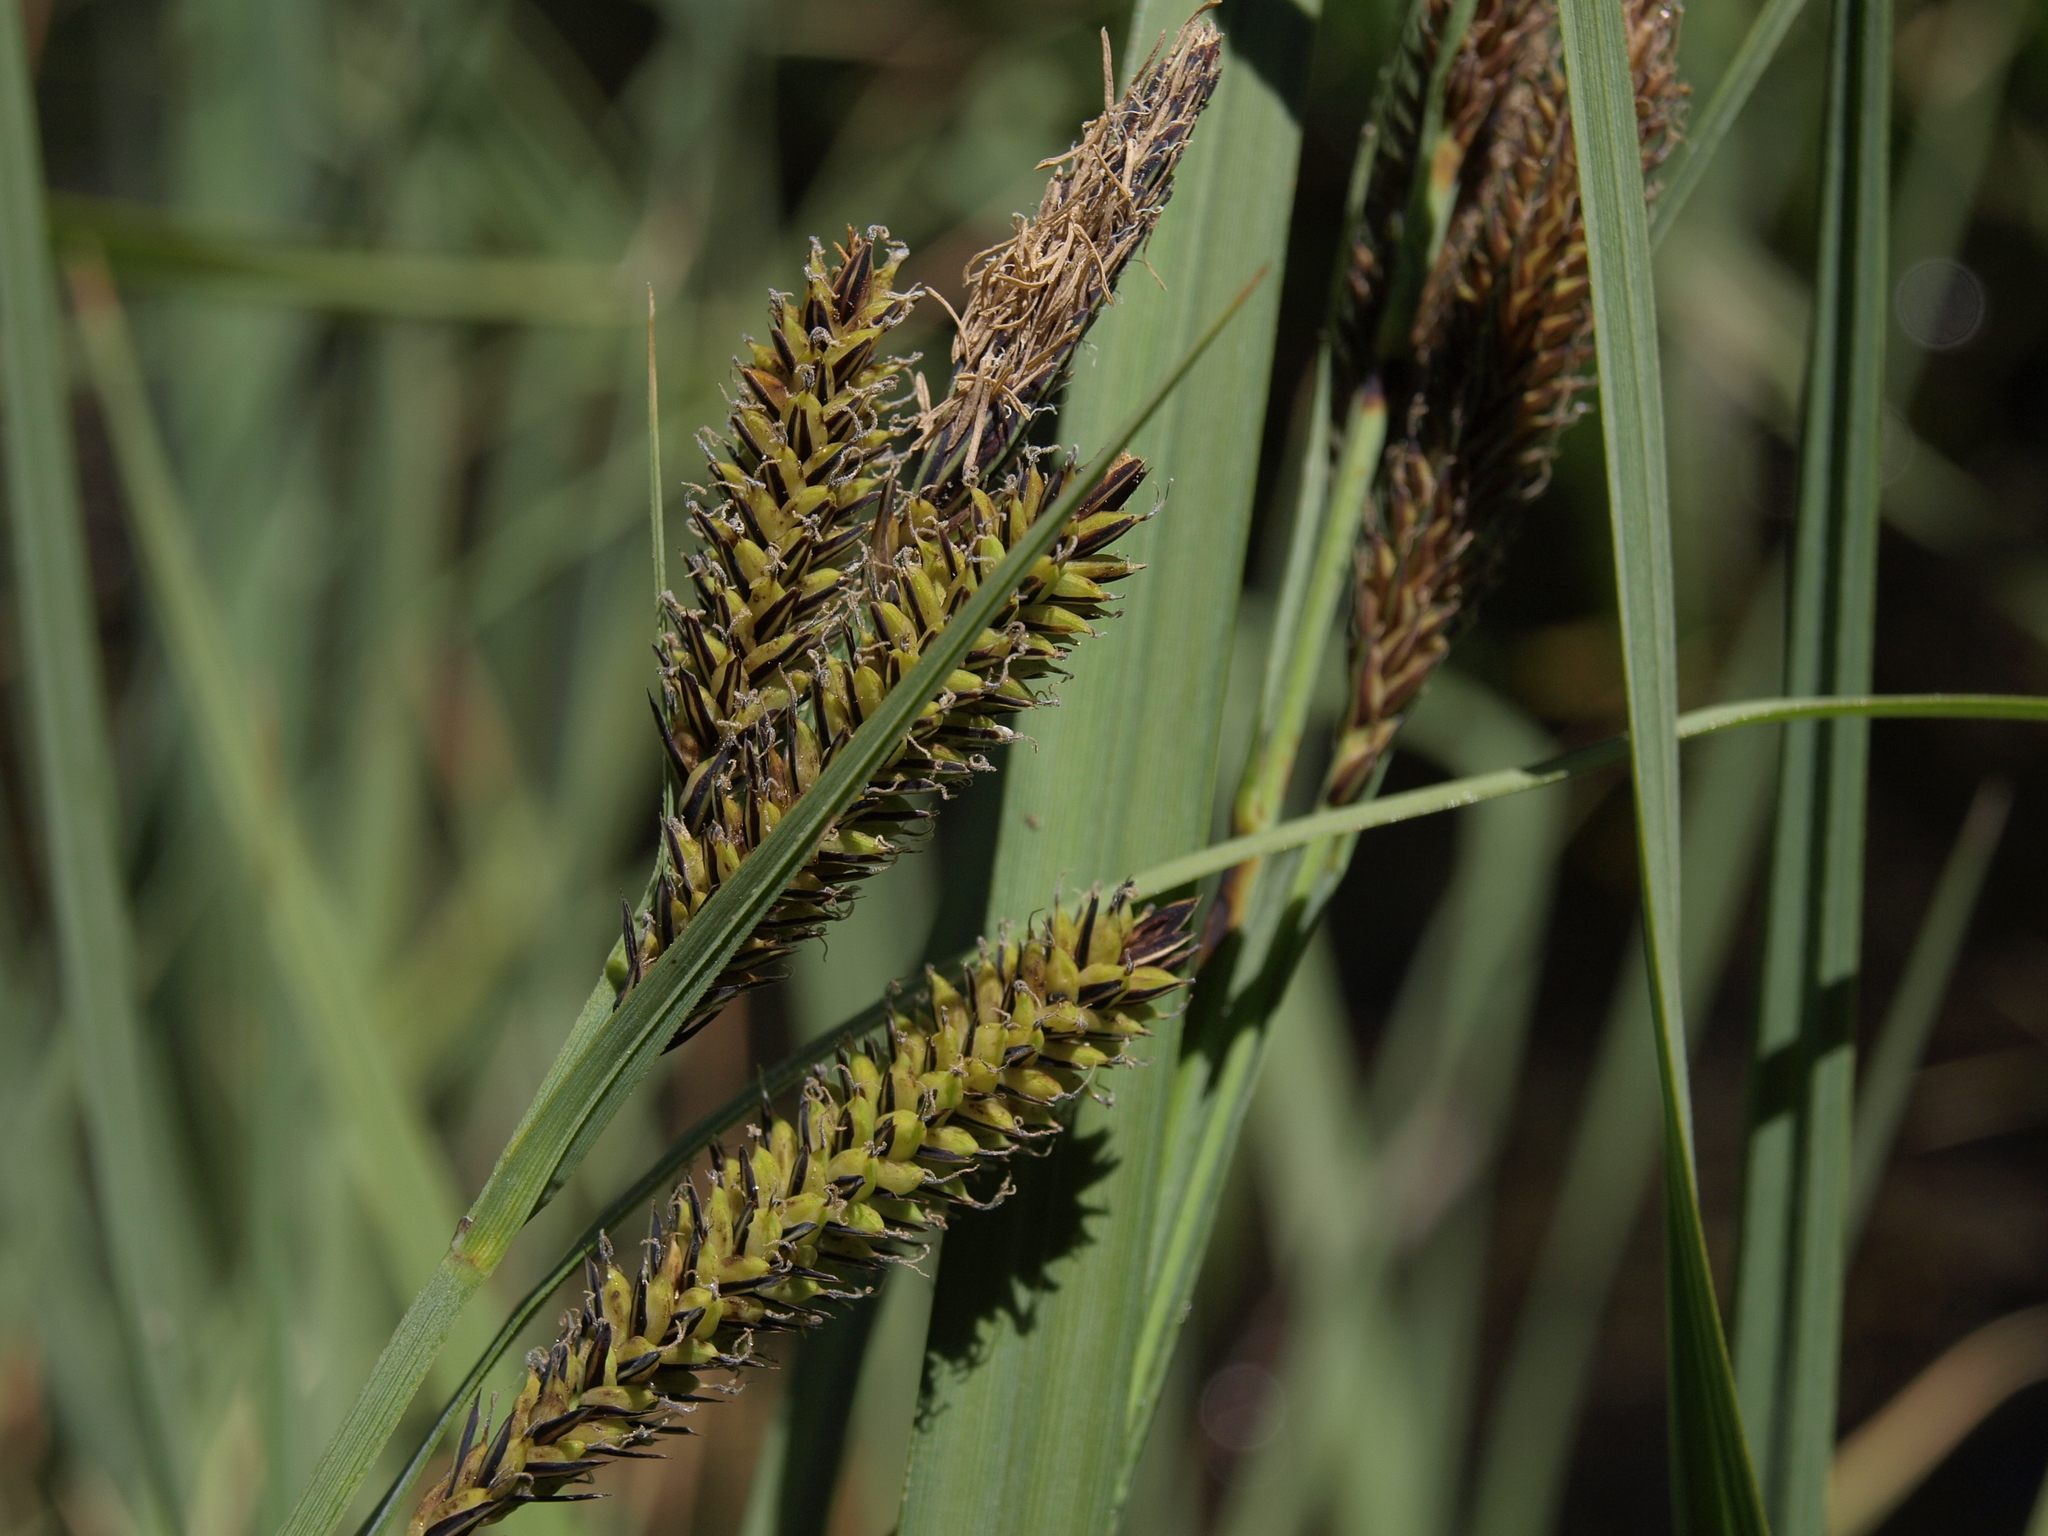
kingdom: Plantae
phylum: Tracheophyta
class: Liliopsida
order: Poales
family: Cyperaceae
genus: Carex
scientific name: Carex nebrascensis
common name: Nebraska sedge
